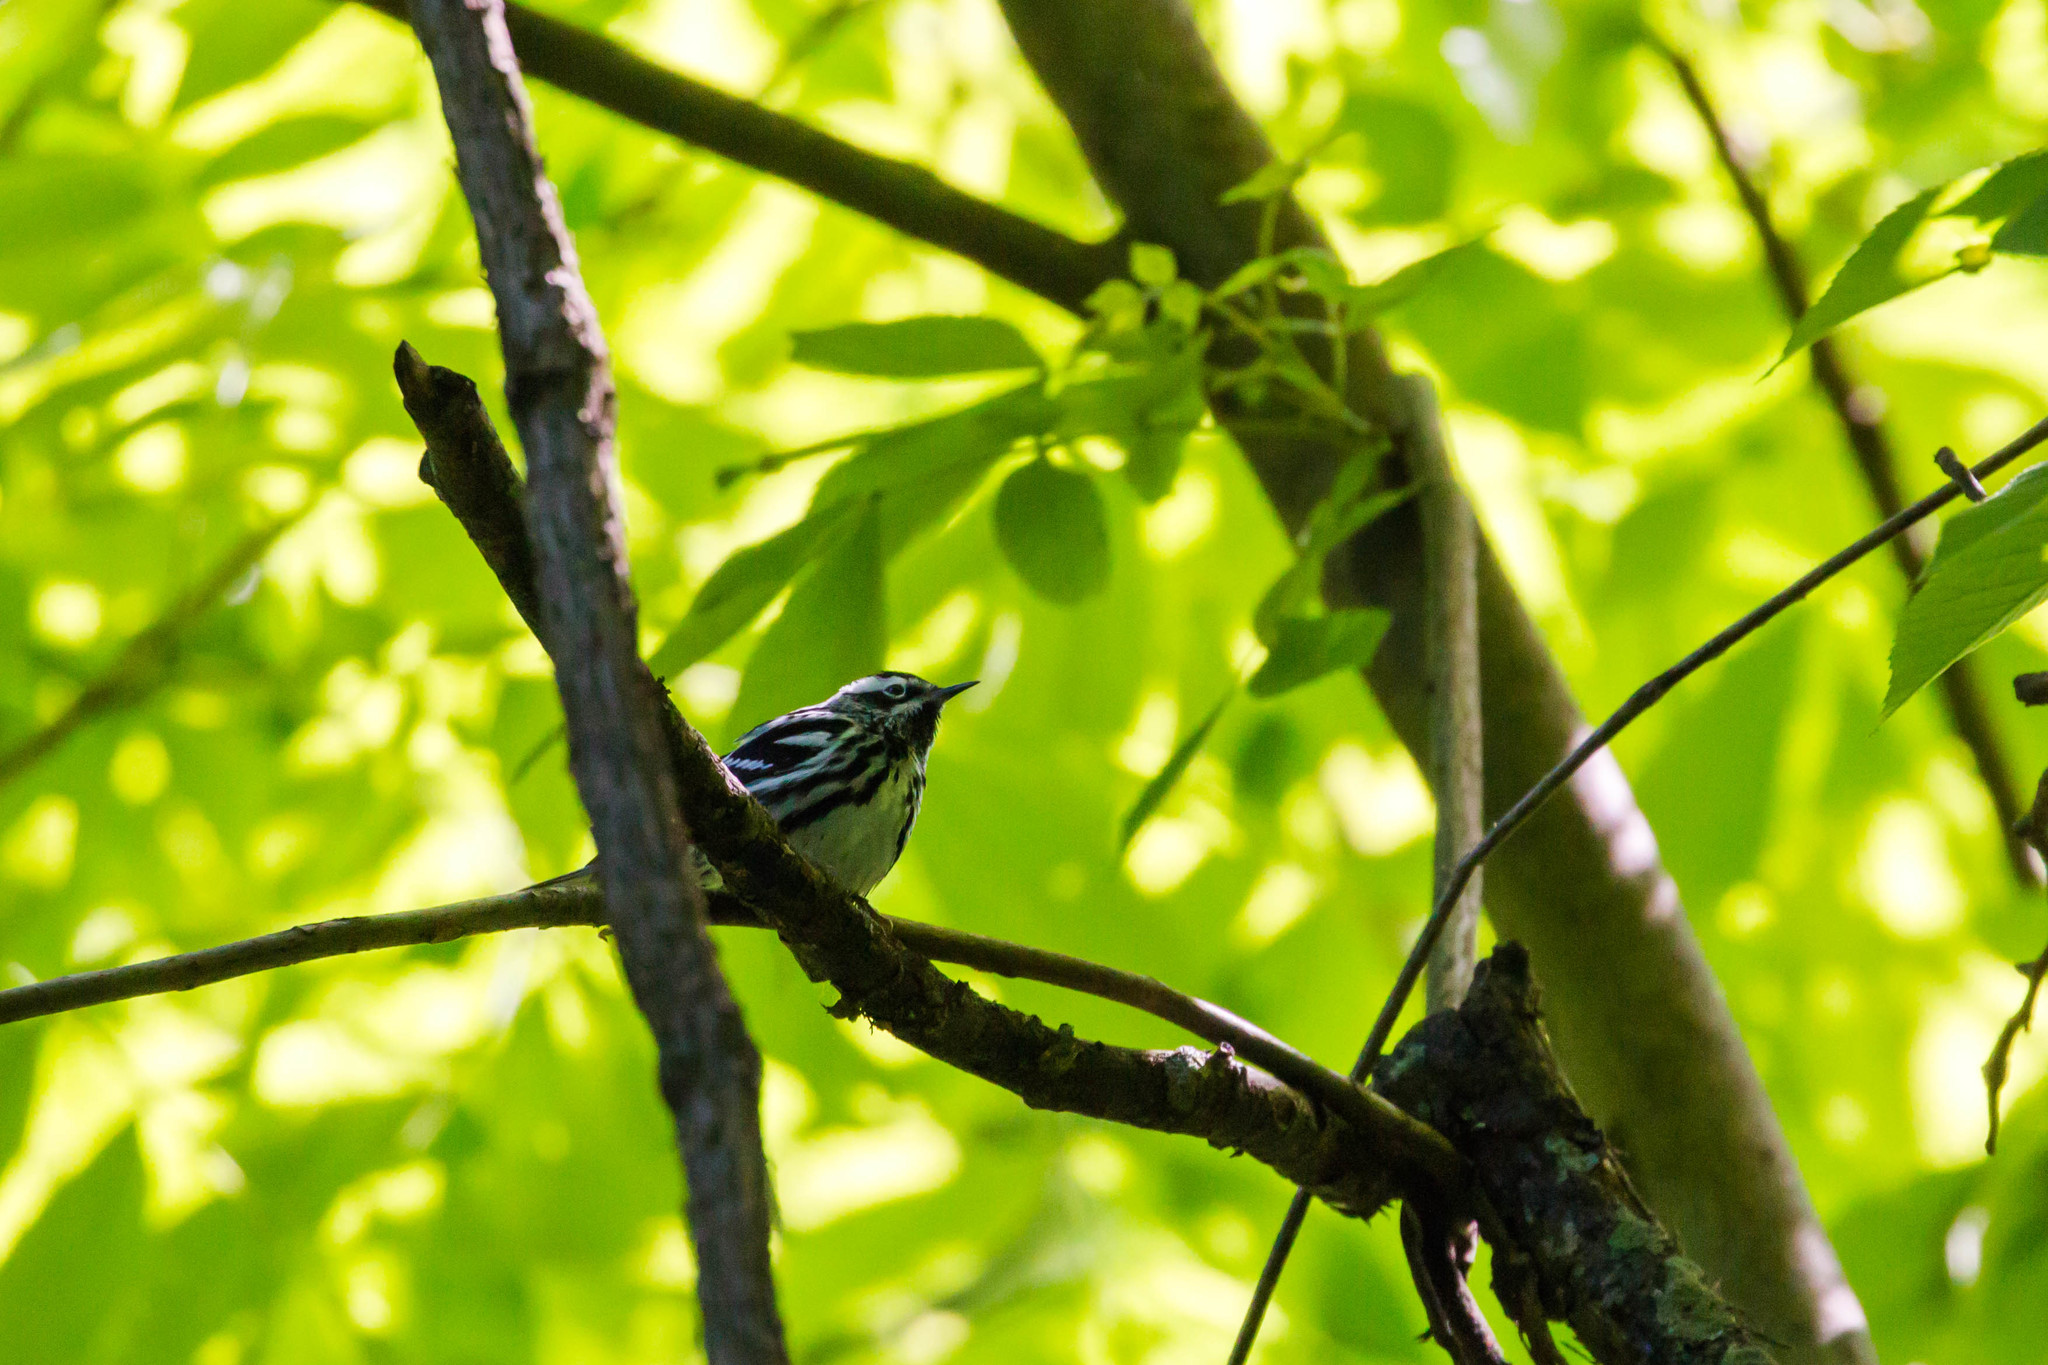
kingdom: Animalia
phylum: Chordata
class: Aves
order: Passeriformes
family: Parulidae
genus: Mniotilta
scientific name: Mniotilta varia
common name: Black-and-white warbler
